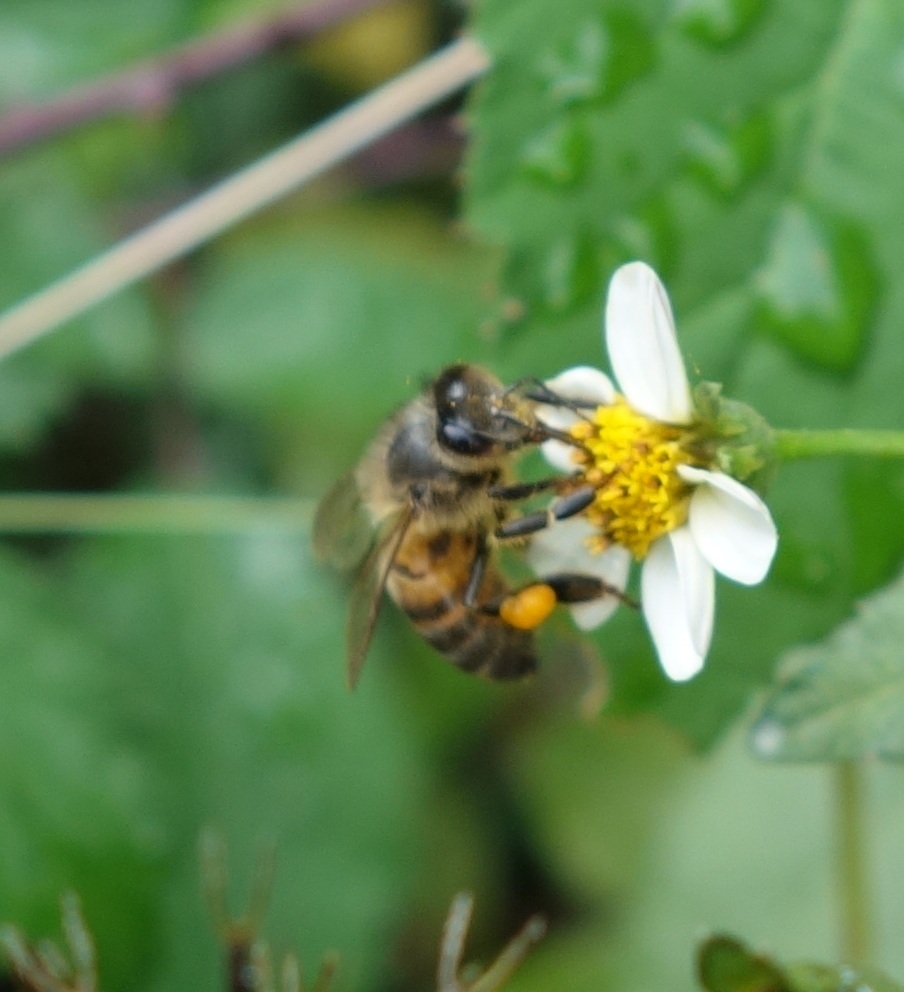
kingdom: Animalia
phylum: Arthropoda
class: Insecta
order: Hymenoptera
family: Apidae
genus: Apis
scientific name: Apis mellifera
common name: Honey bee
